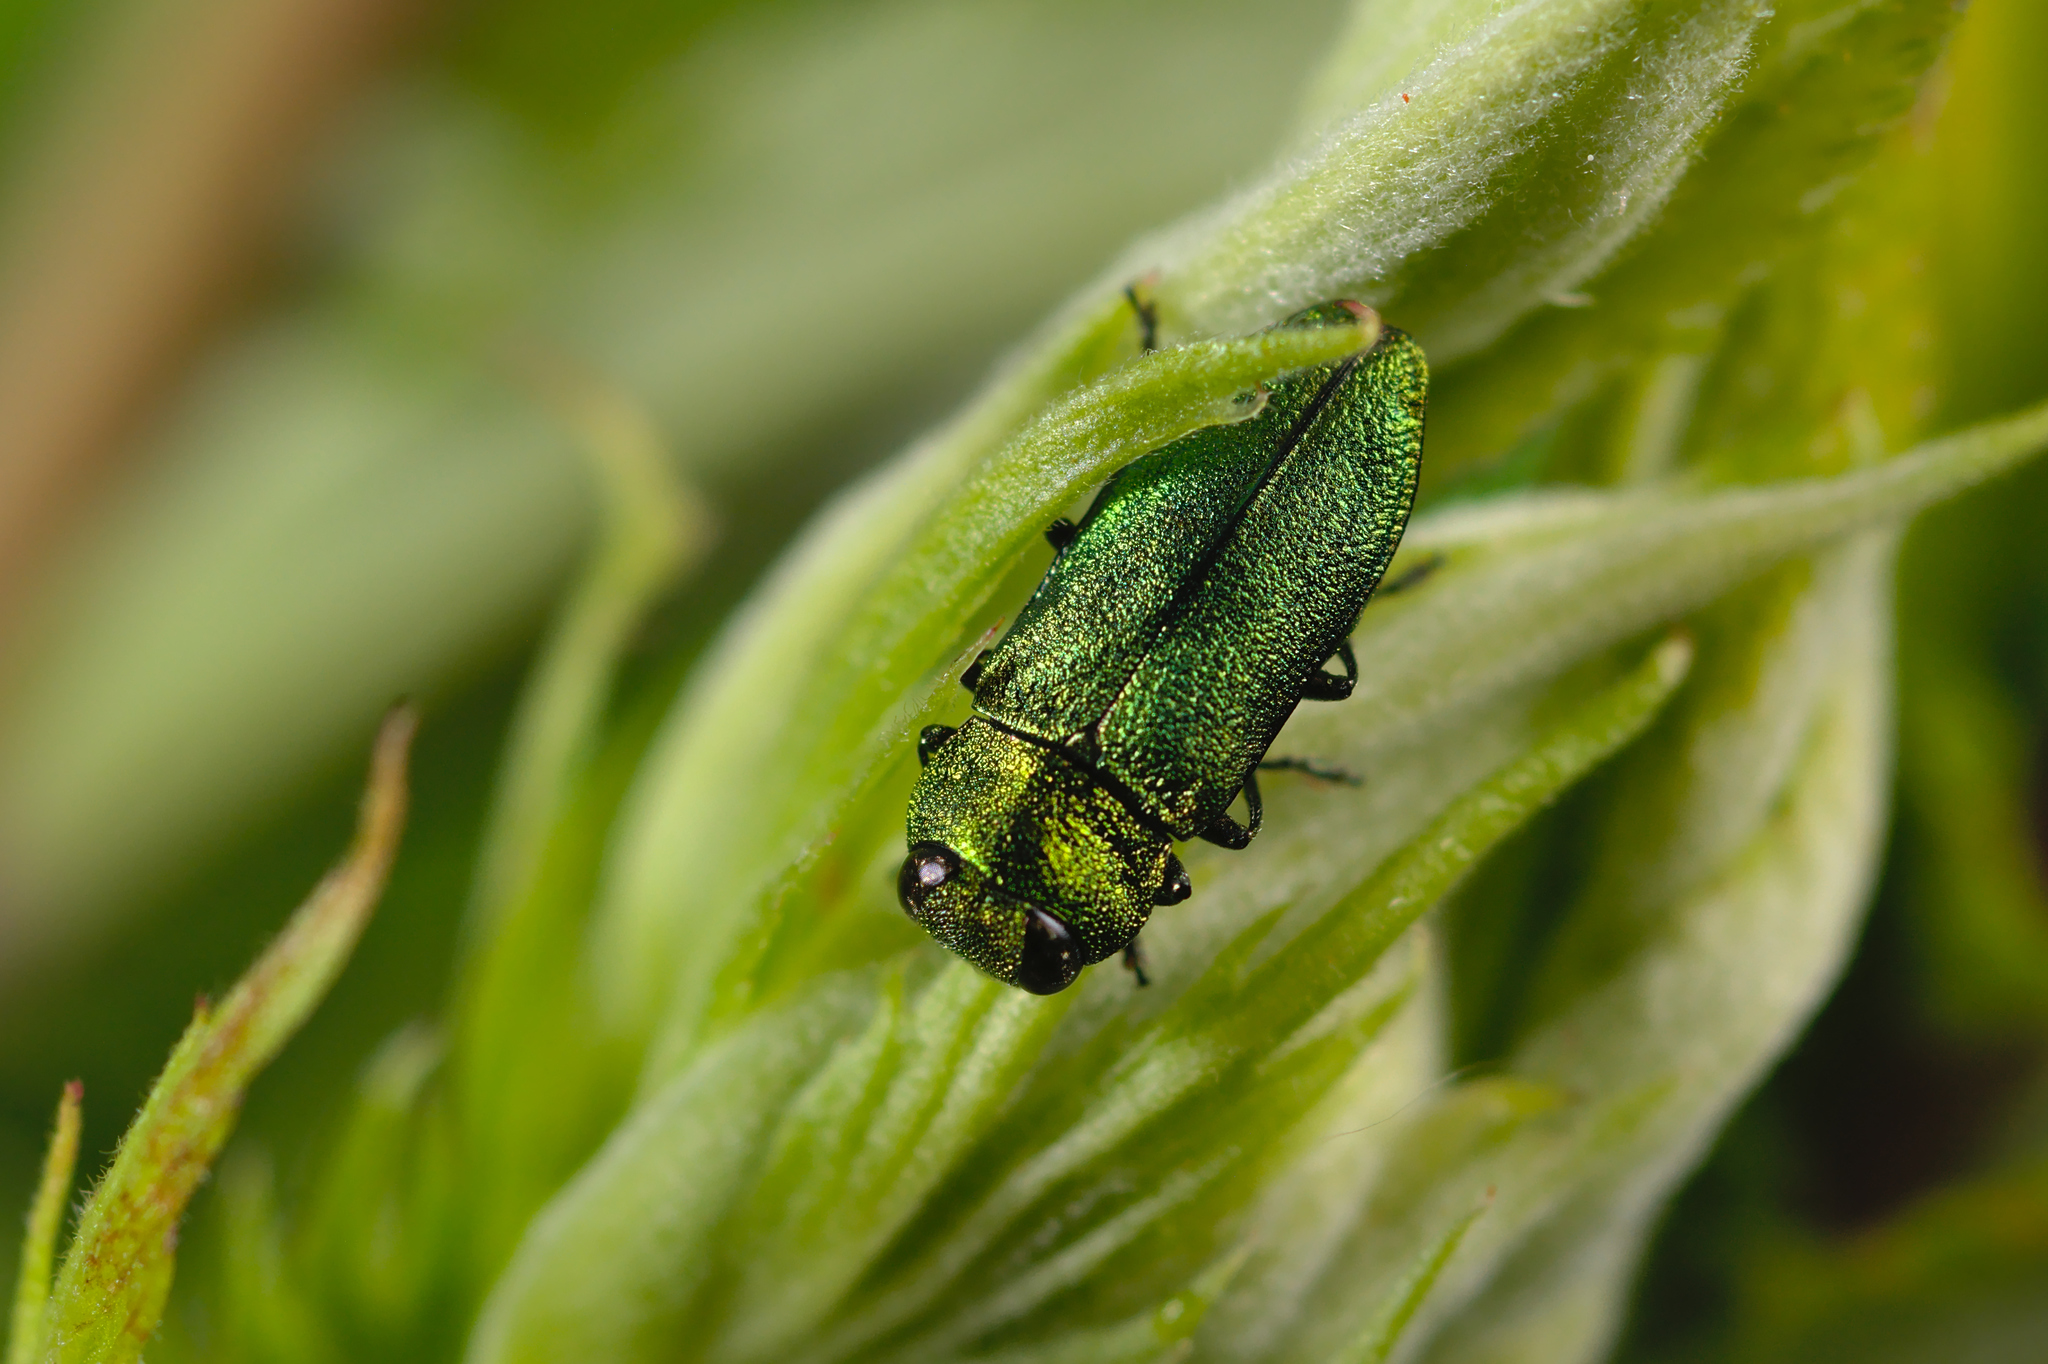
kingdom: Animalia
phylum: Arthropoda
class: Insecta
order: Coleoptera
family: Buprestidae
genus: Anthaxia
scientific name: Anthaxia nitidula
